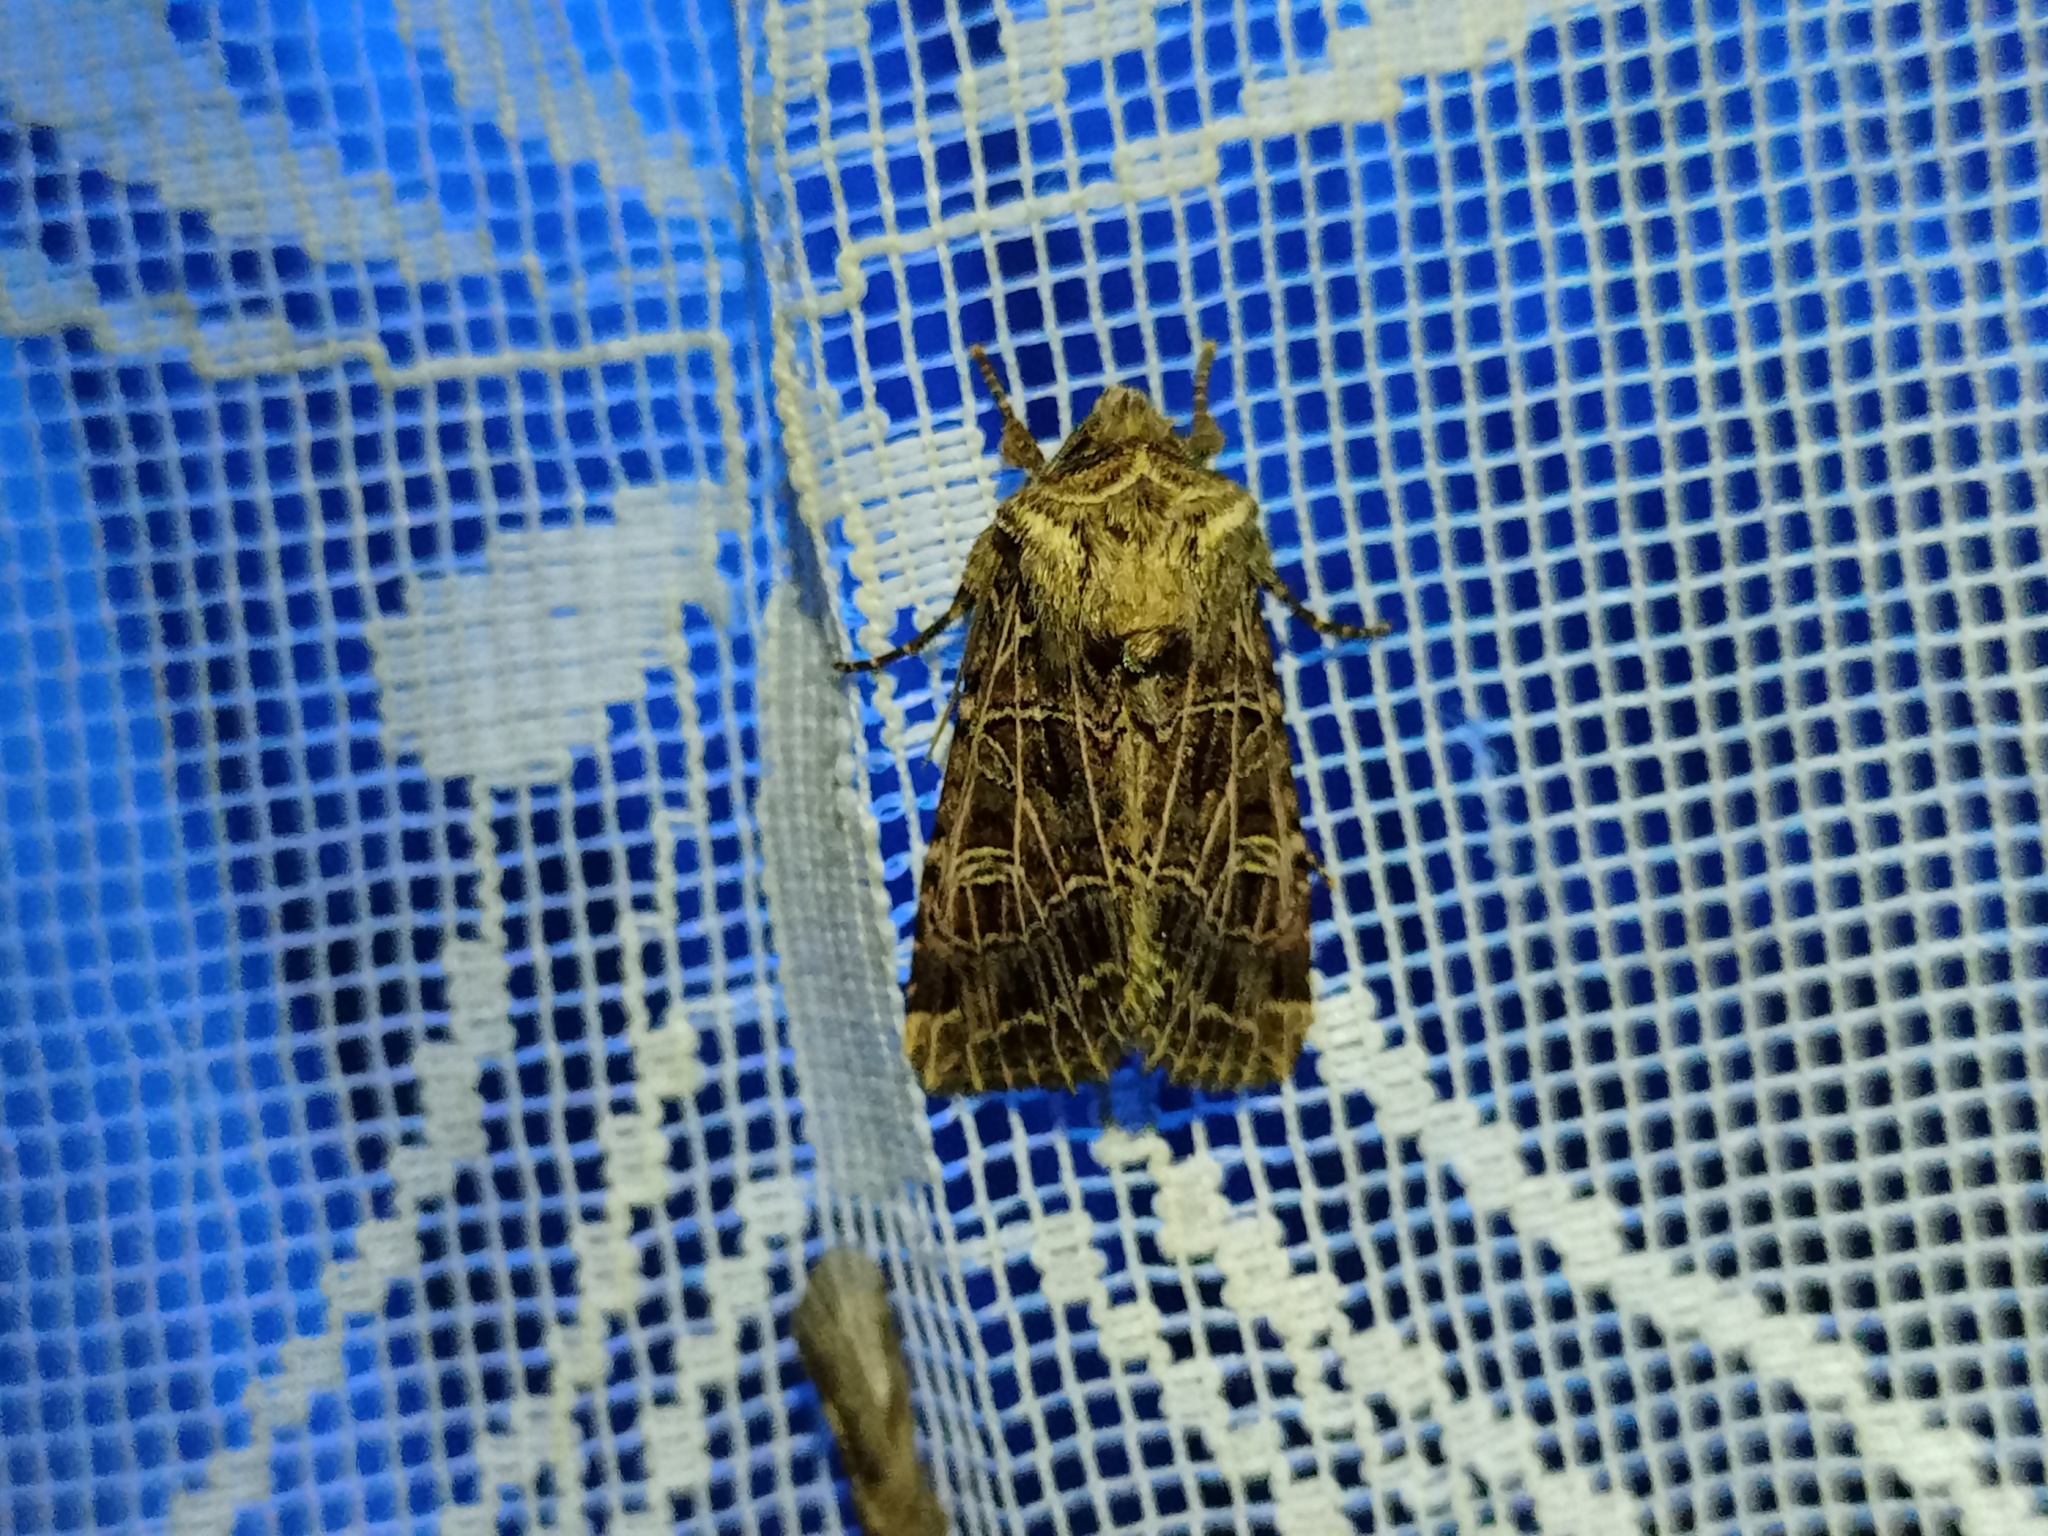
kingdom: Animalia
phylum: Arthropoda
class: Insecta
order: Lepidoptera
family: Noctuidae
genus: Sideridis
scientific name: Sideridis reticulata
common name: Bordered gothic
